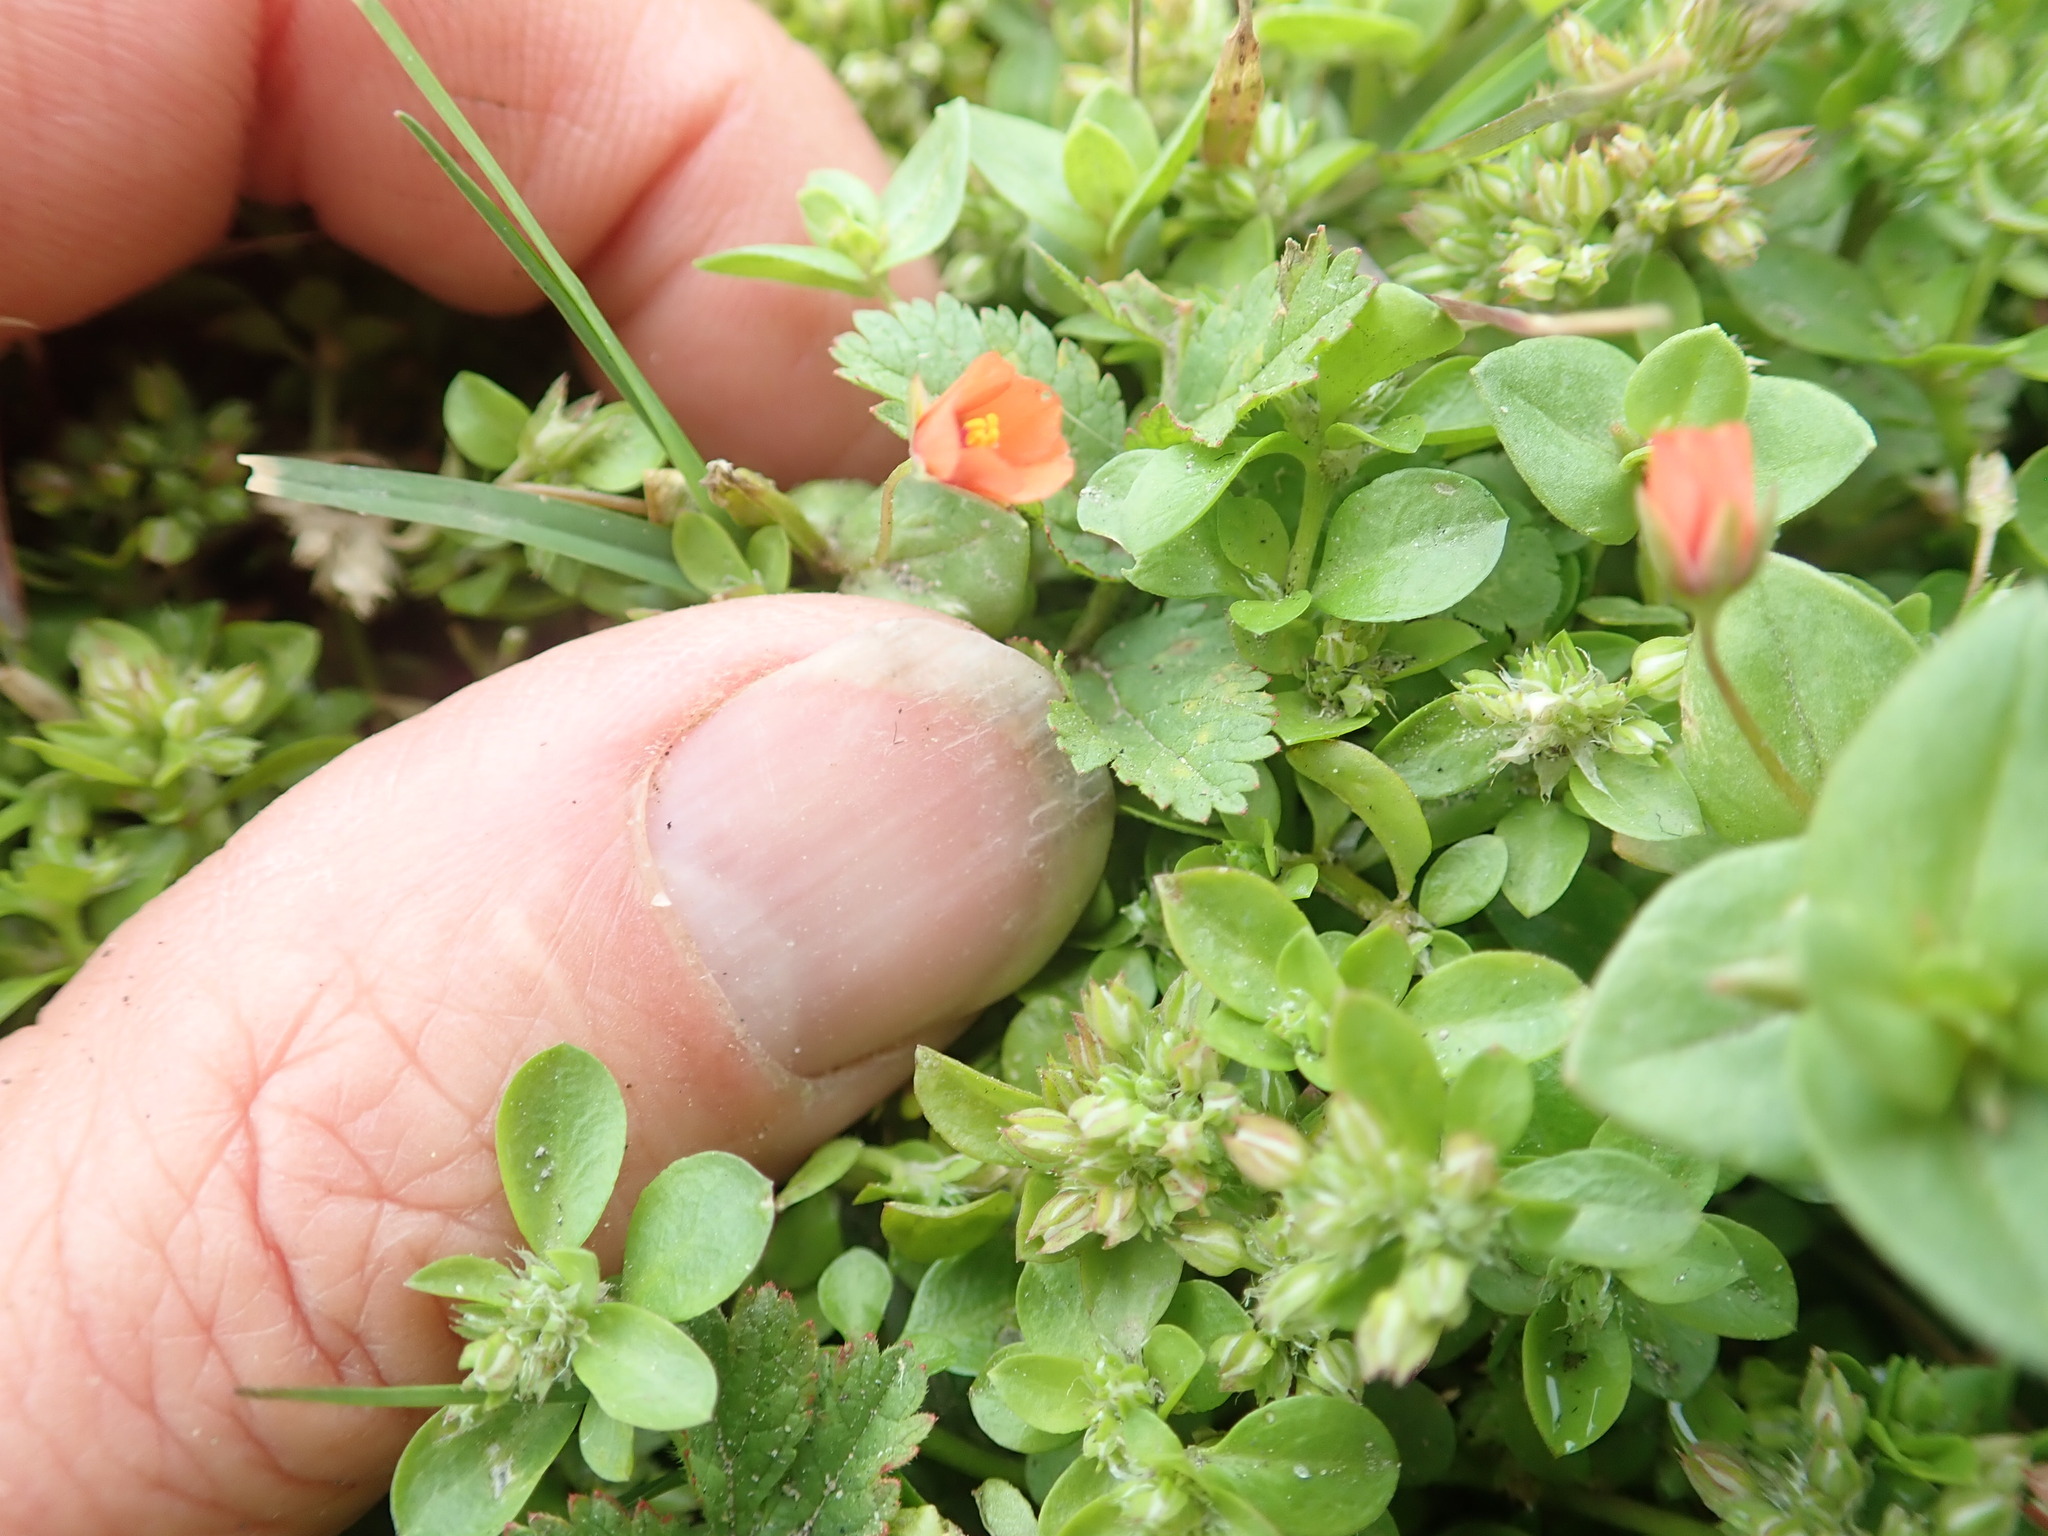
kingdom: Plantae
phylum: Tracheophyta
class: Magnoliopsida
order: Ericales
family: Primulaceae
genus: Lysimachia
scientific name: Lysimachia arvensis
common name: Scarlet pimpernel
